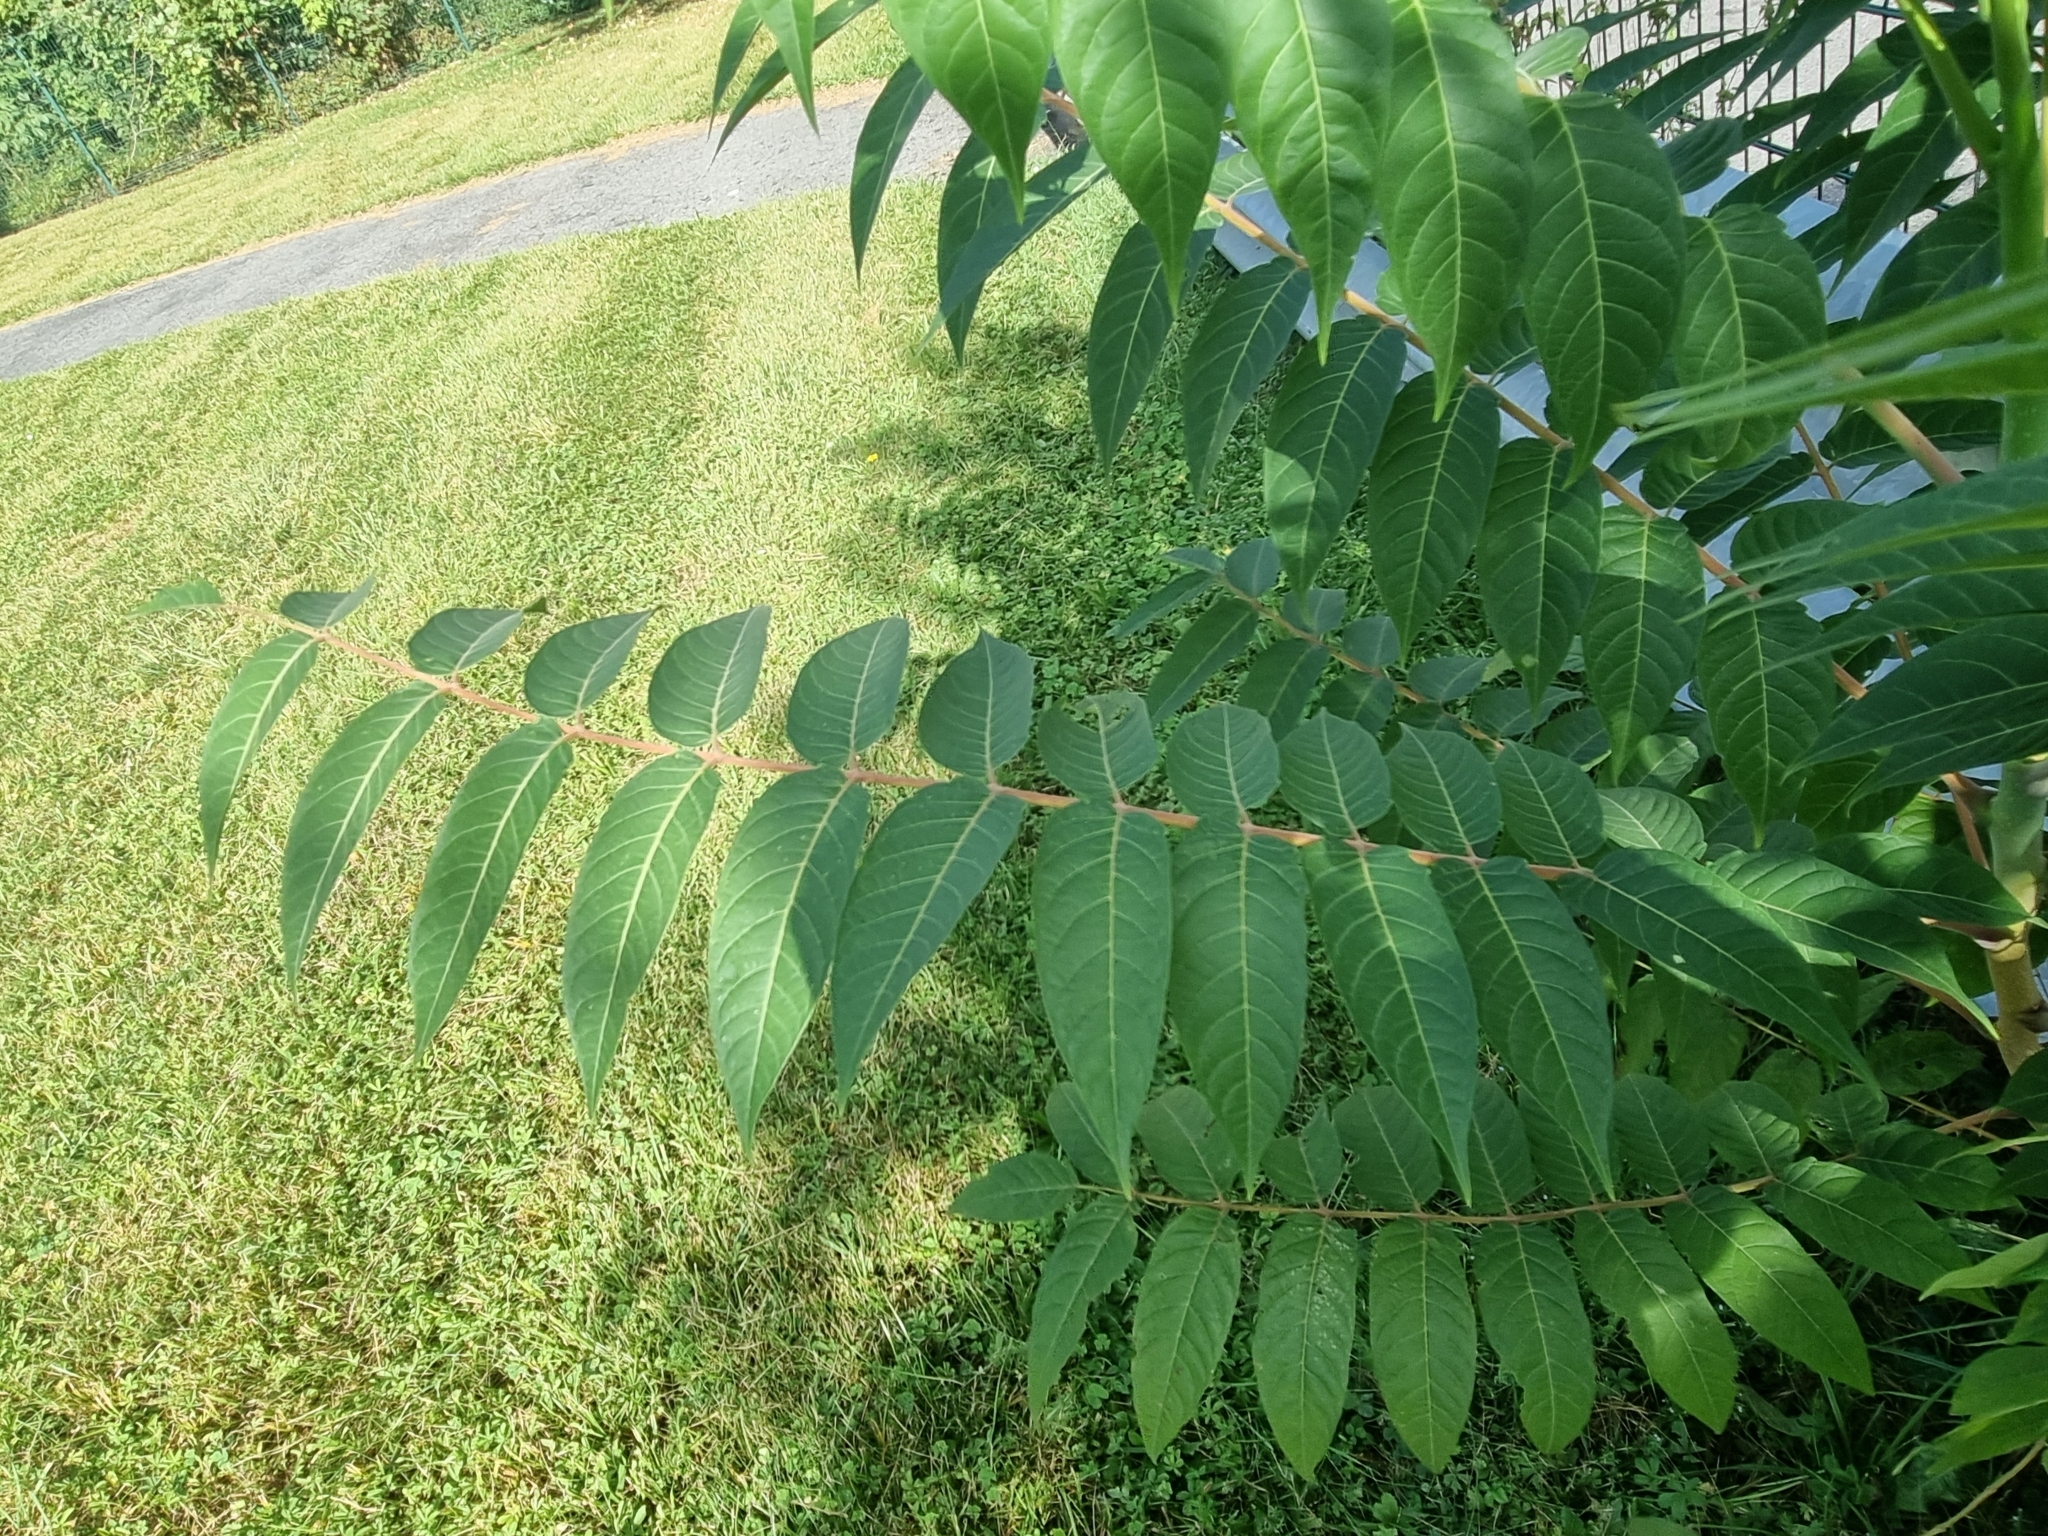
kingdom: Plantae
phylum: Tracheophyta
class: Magnoliopsida
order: Sapindales
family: Simaroubaceae
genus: Ailanthus
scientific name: Ailanthus altissima
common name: Tree-of-heaven
